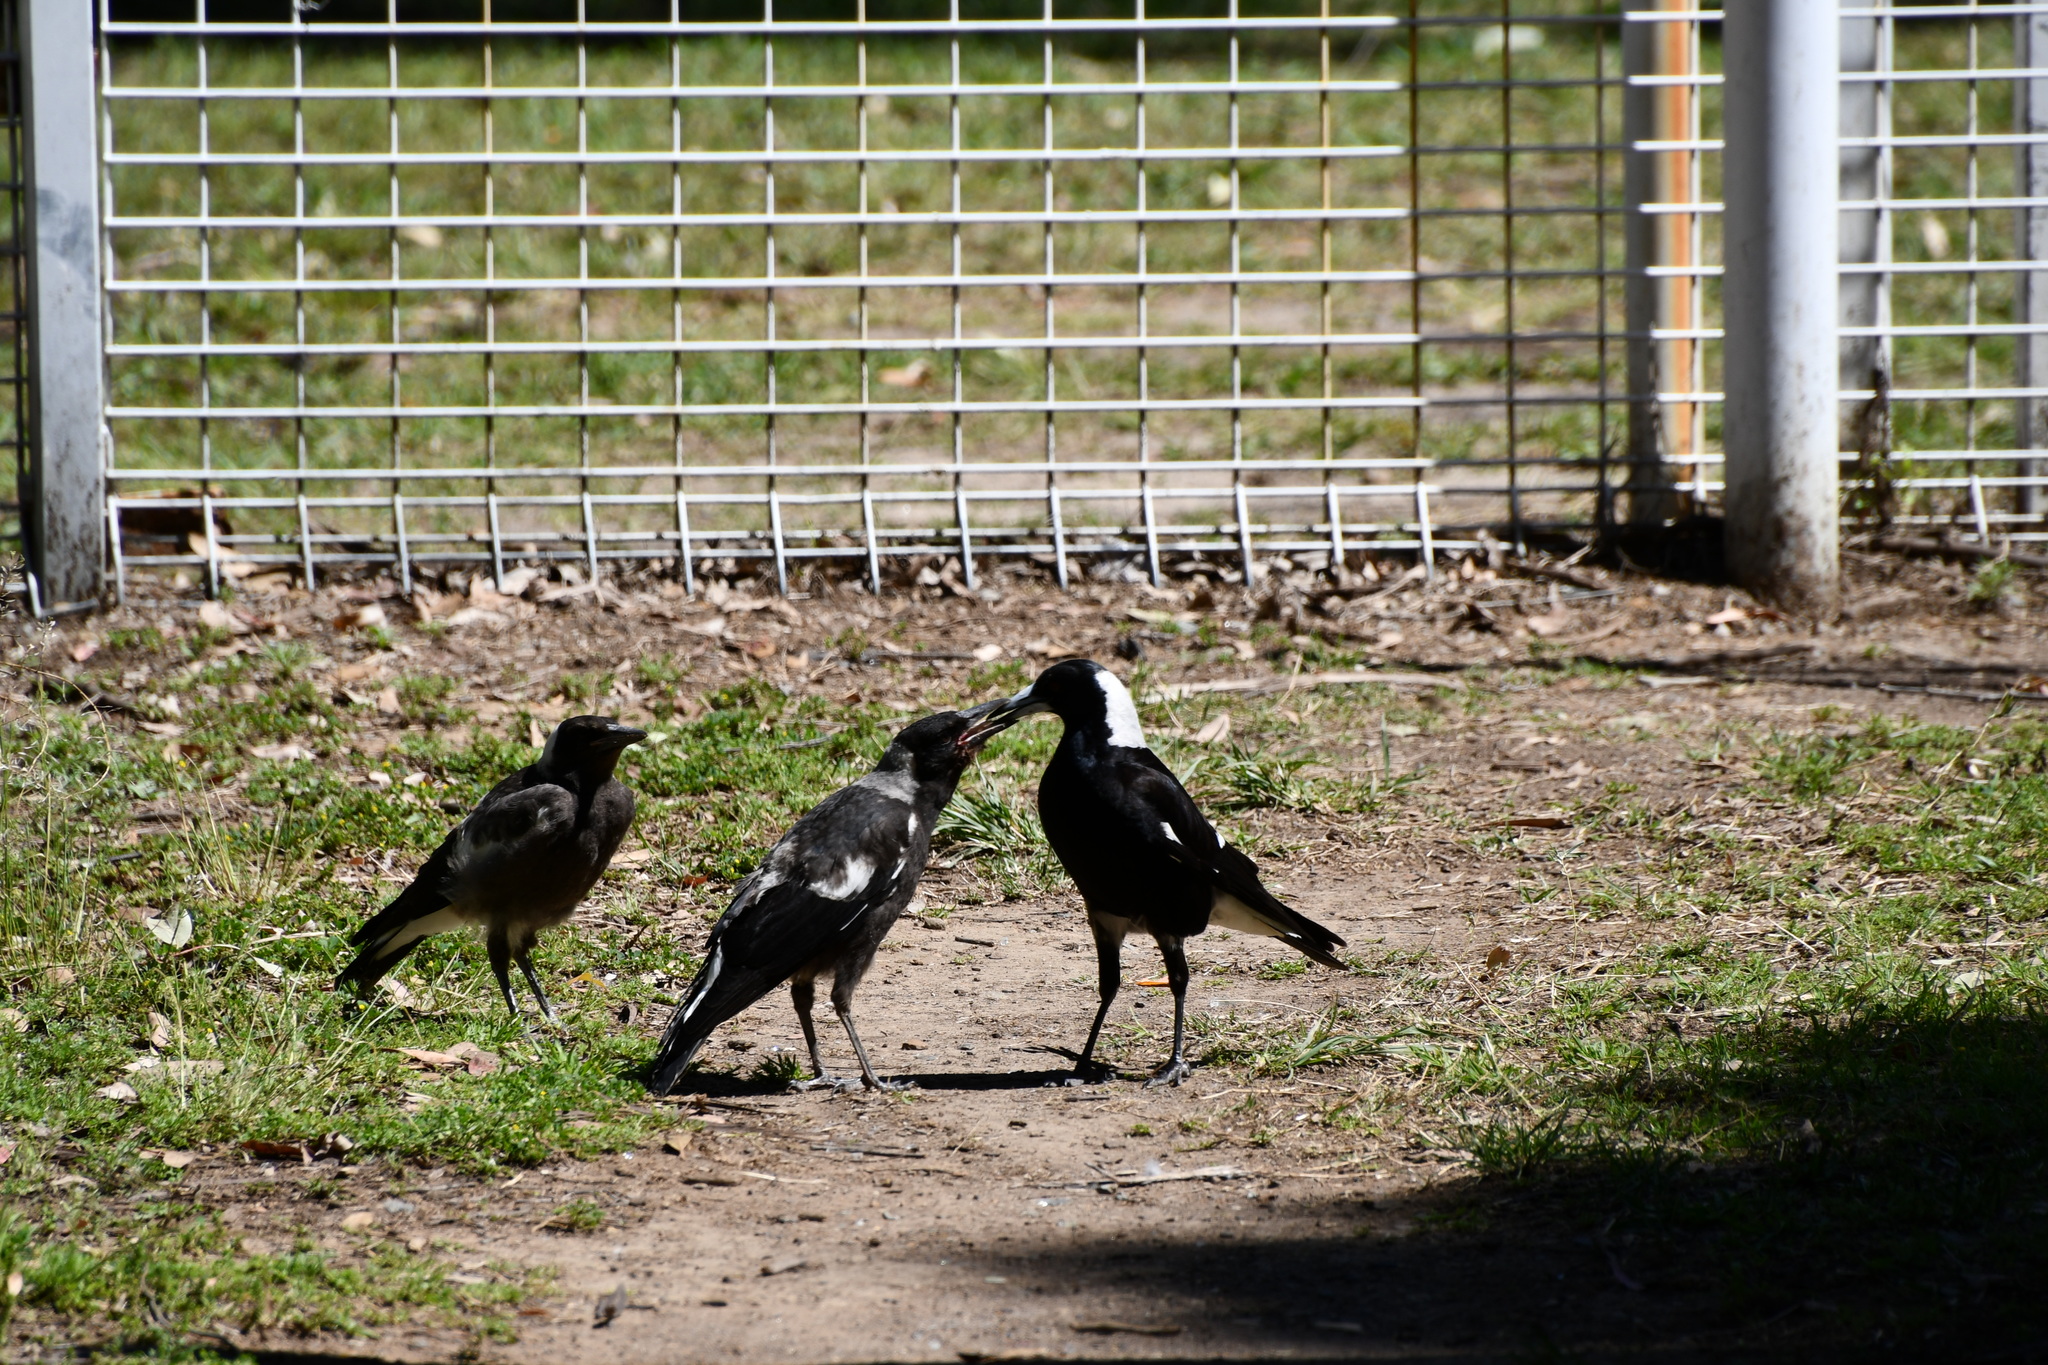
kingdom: Animalia
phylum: Chordata
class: Aves
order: Passeriformes
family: Cracticidae
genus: Gymnorhina
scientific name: Gymnorhina tibicen
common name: Australian magpie
